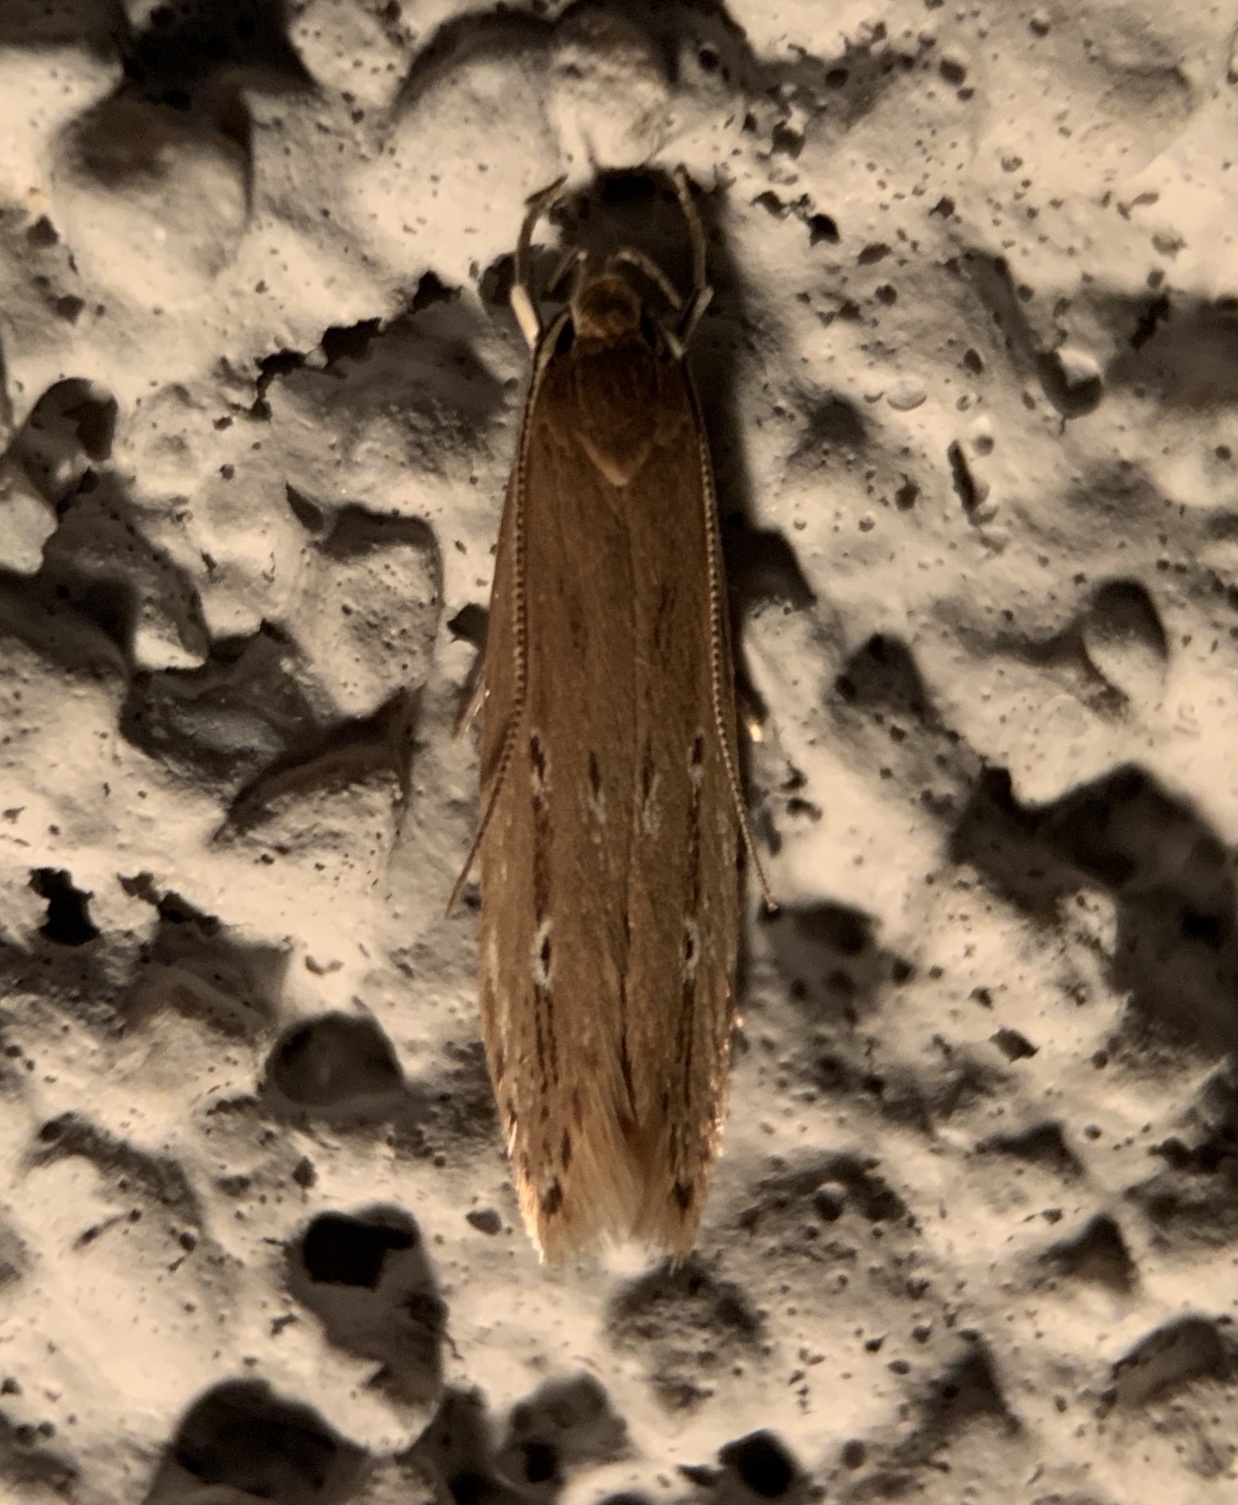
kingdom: Animalia
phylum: Arthropoda
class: Insecta
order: Lepidoptera
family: Cosmopterigidae
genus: Limnaecia
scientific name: Limnaecia phragmitella
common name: Bulrush cosmet
